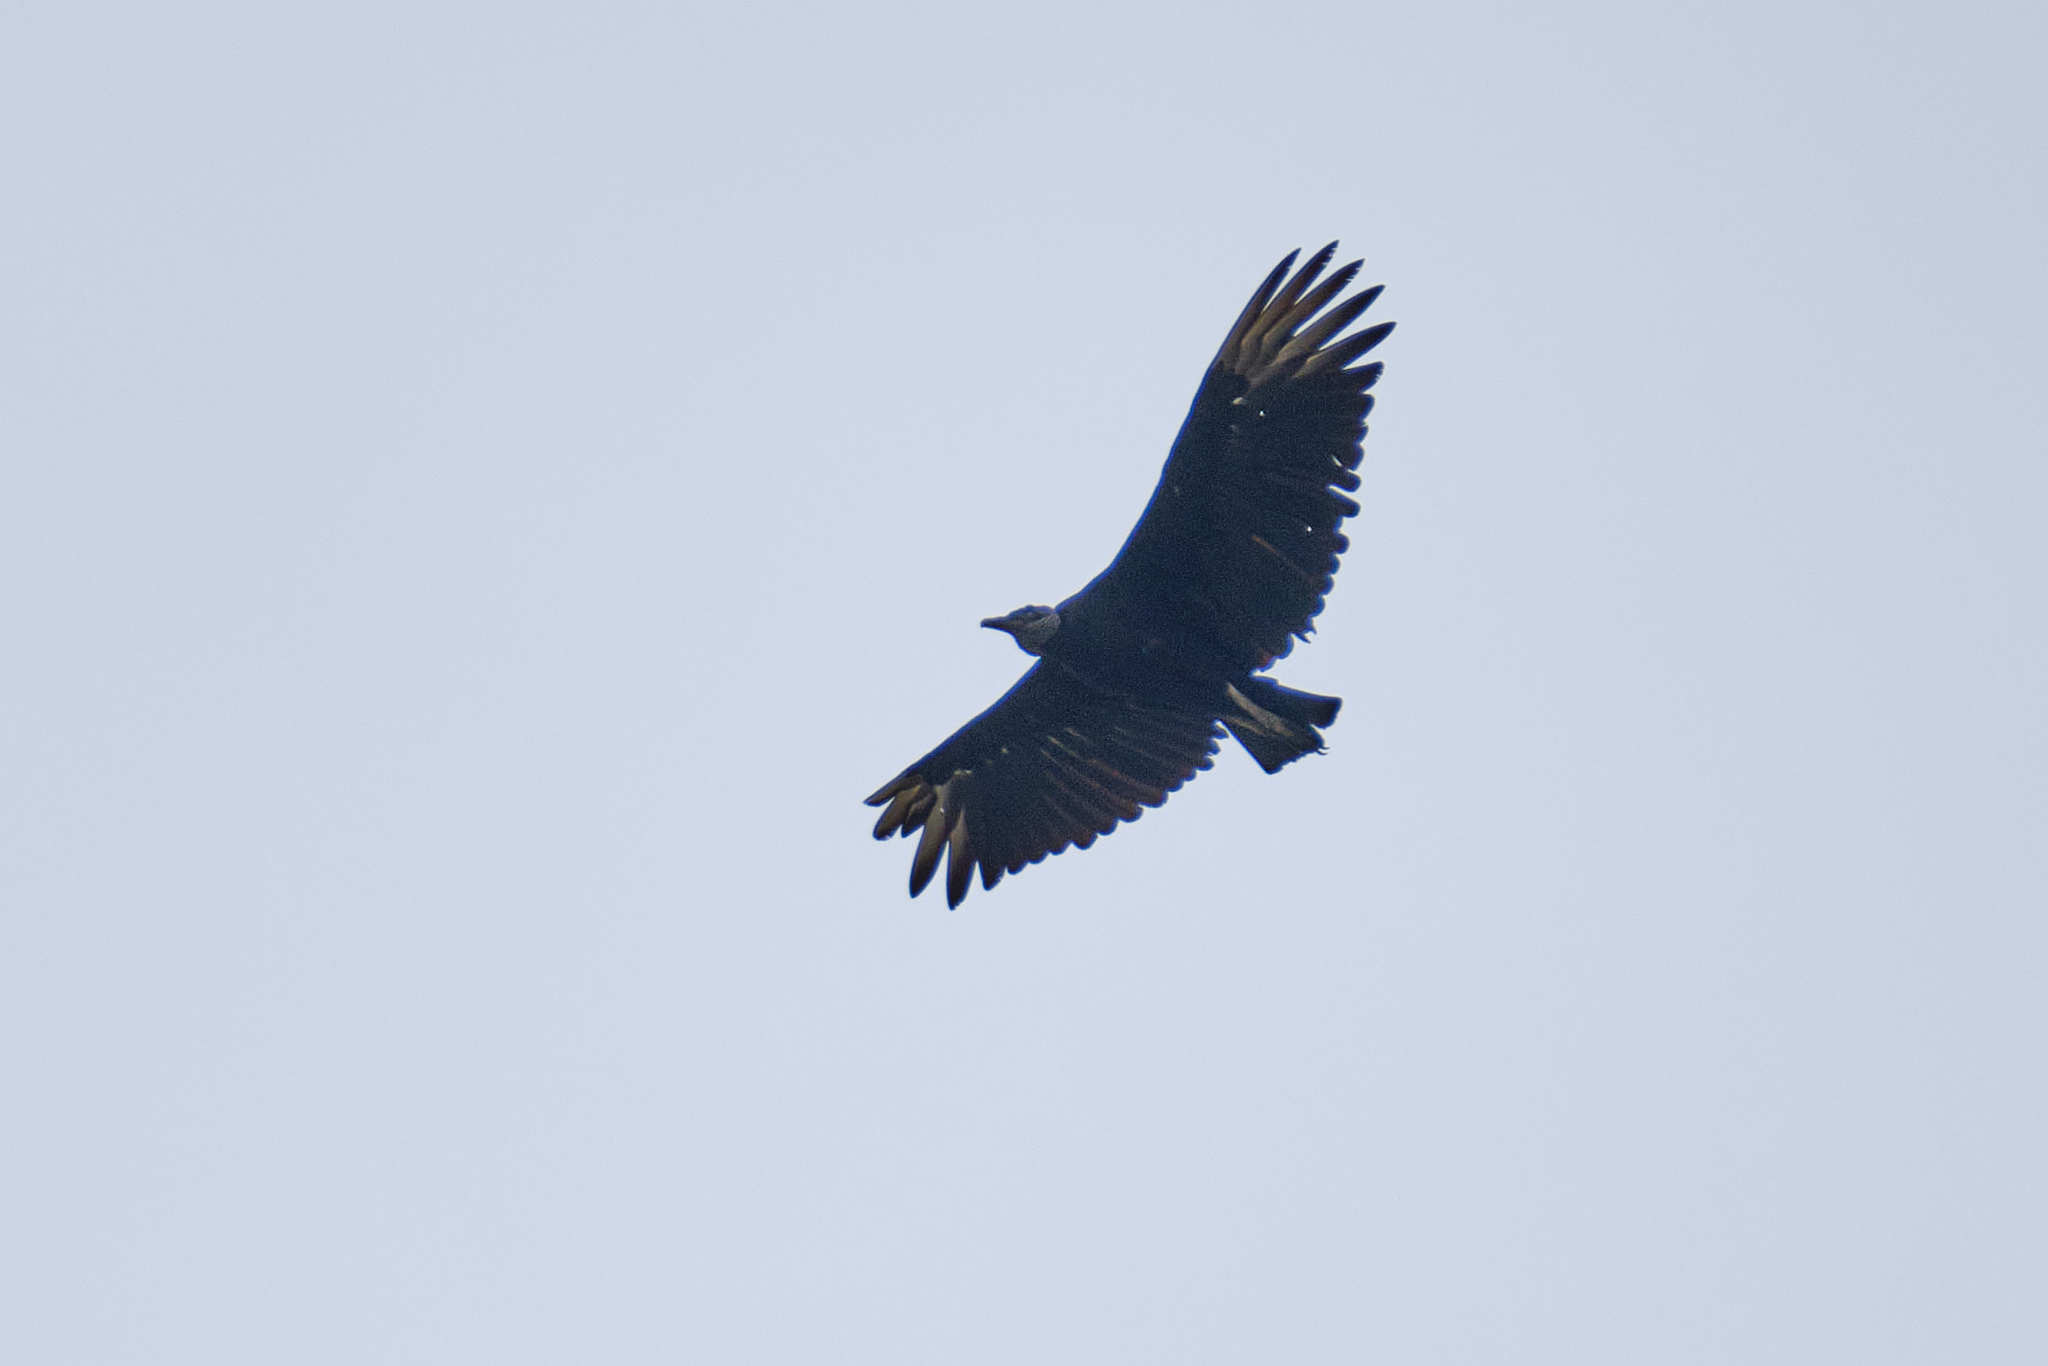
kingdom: Animalia
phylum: Chordata
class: Aves
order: Accipitriformes
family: Cathartidae
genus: Coragyps
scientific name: Coragyps atratus
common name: Black vulture
